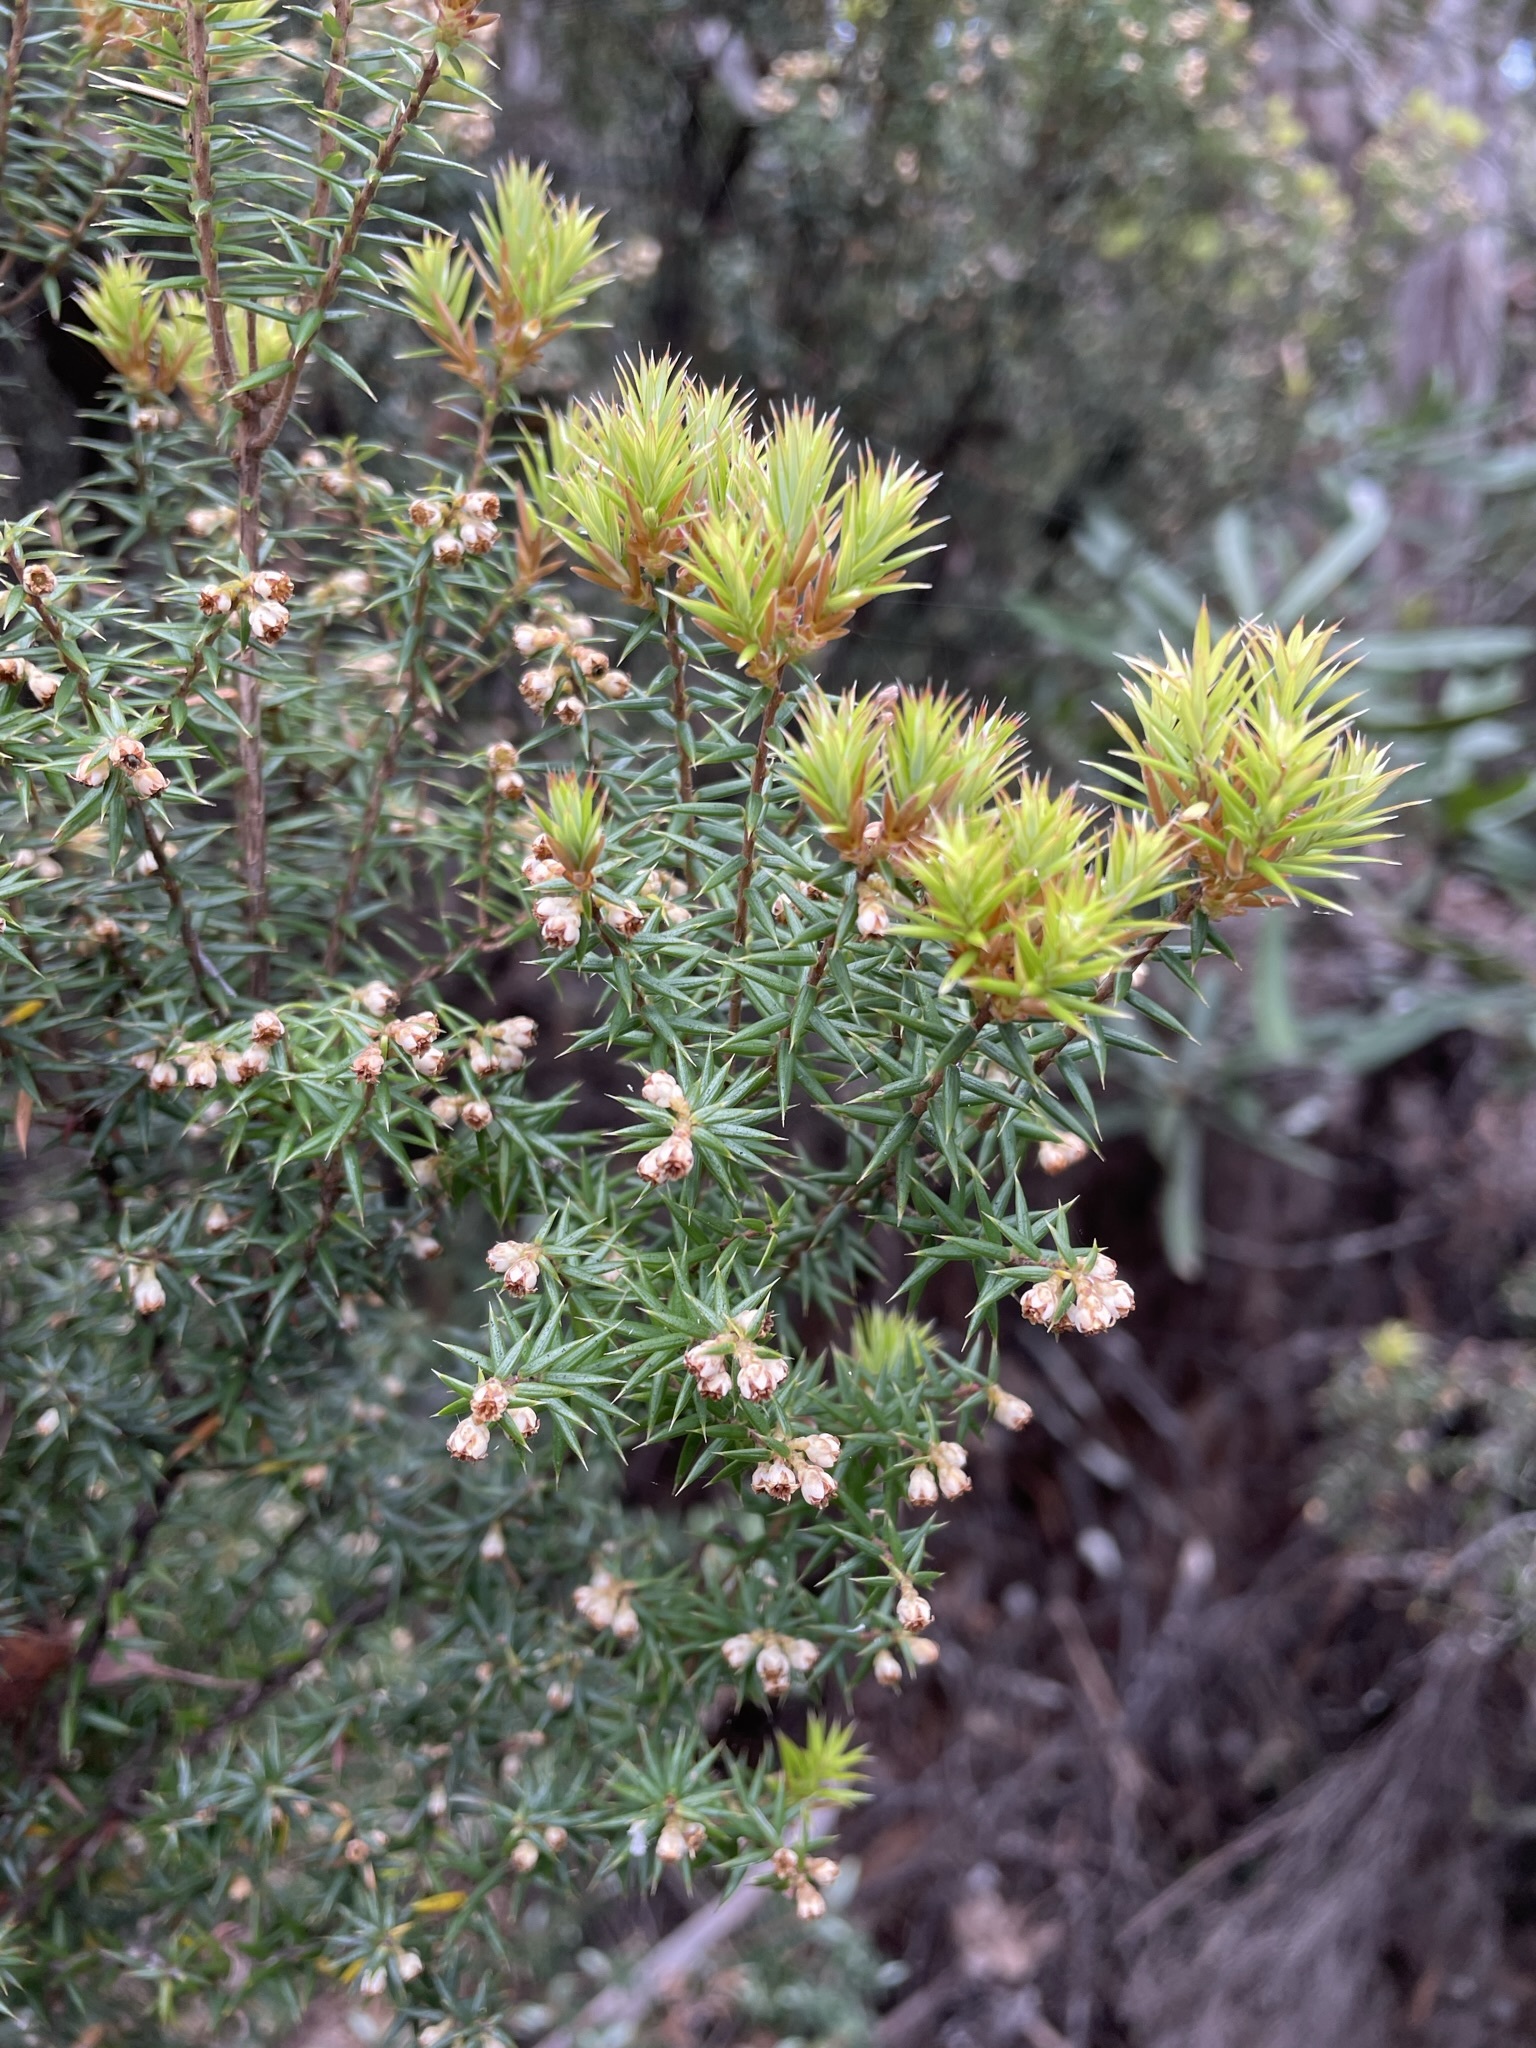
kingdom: Plantae
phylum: Tracheophyta
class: Magnoliopsida
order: Ericales
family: Ericaceae
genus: Leptecophylla
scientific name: Leptecophylla parvifolia
